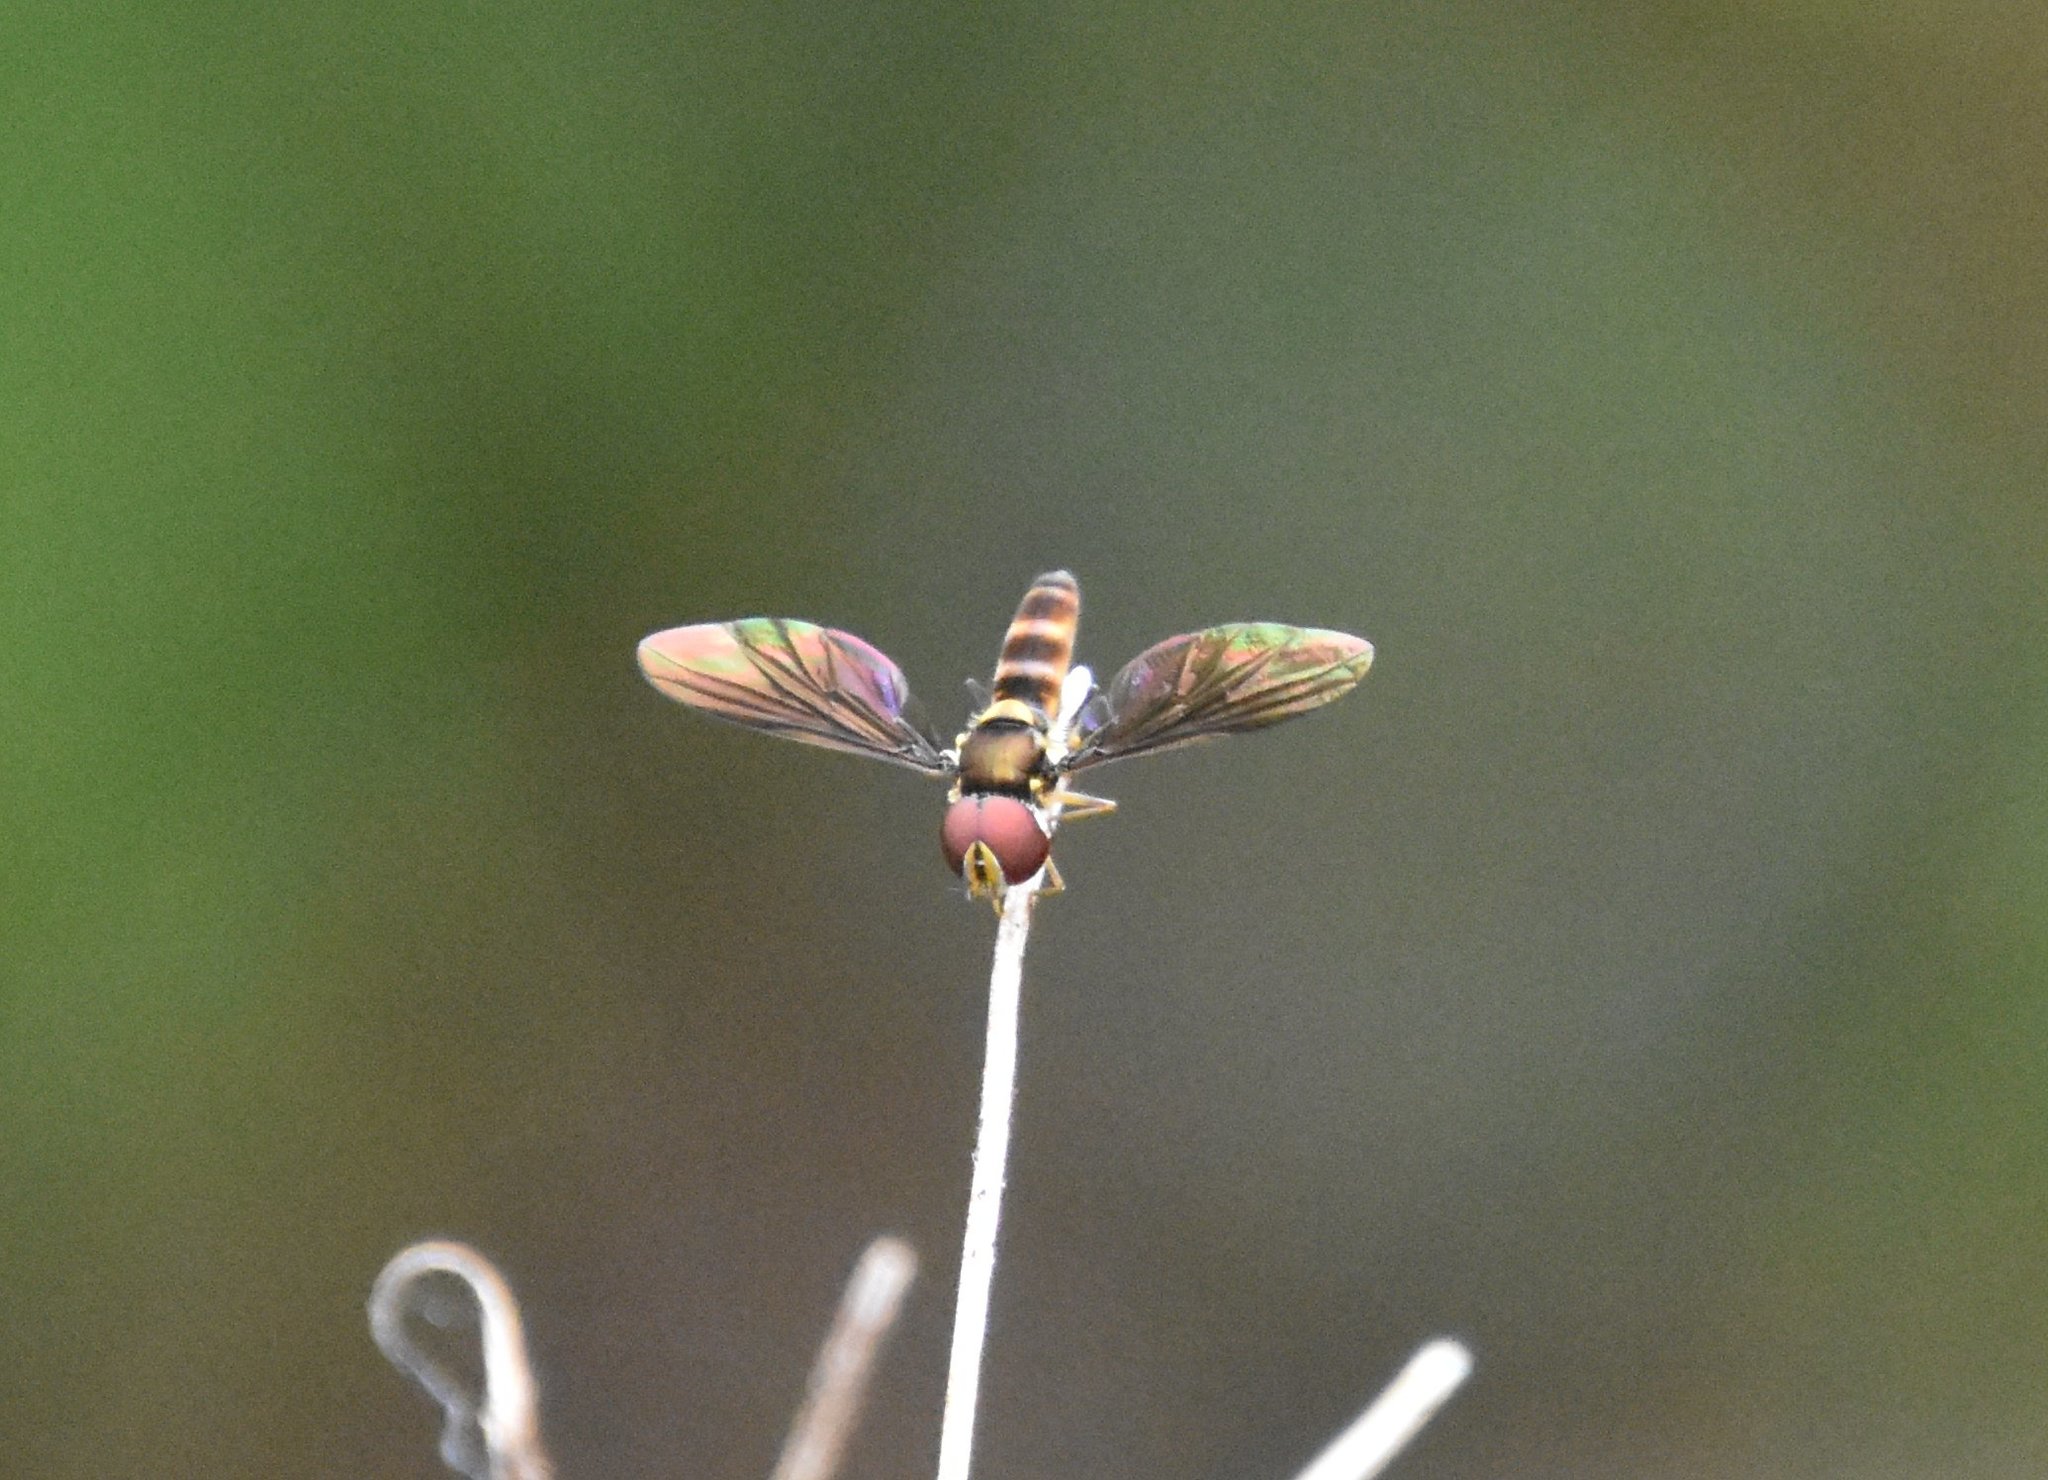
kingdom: Animalia
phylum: Arthropoda
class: Insecta
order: Diptera
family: Syrphidae
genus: Ocyptamus
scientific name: Ocyptamus antiphates
